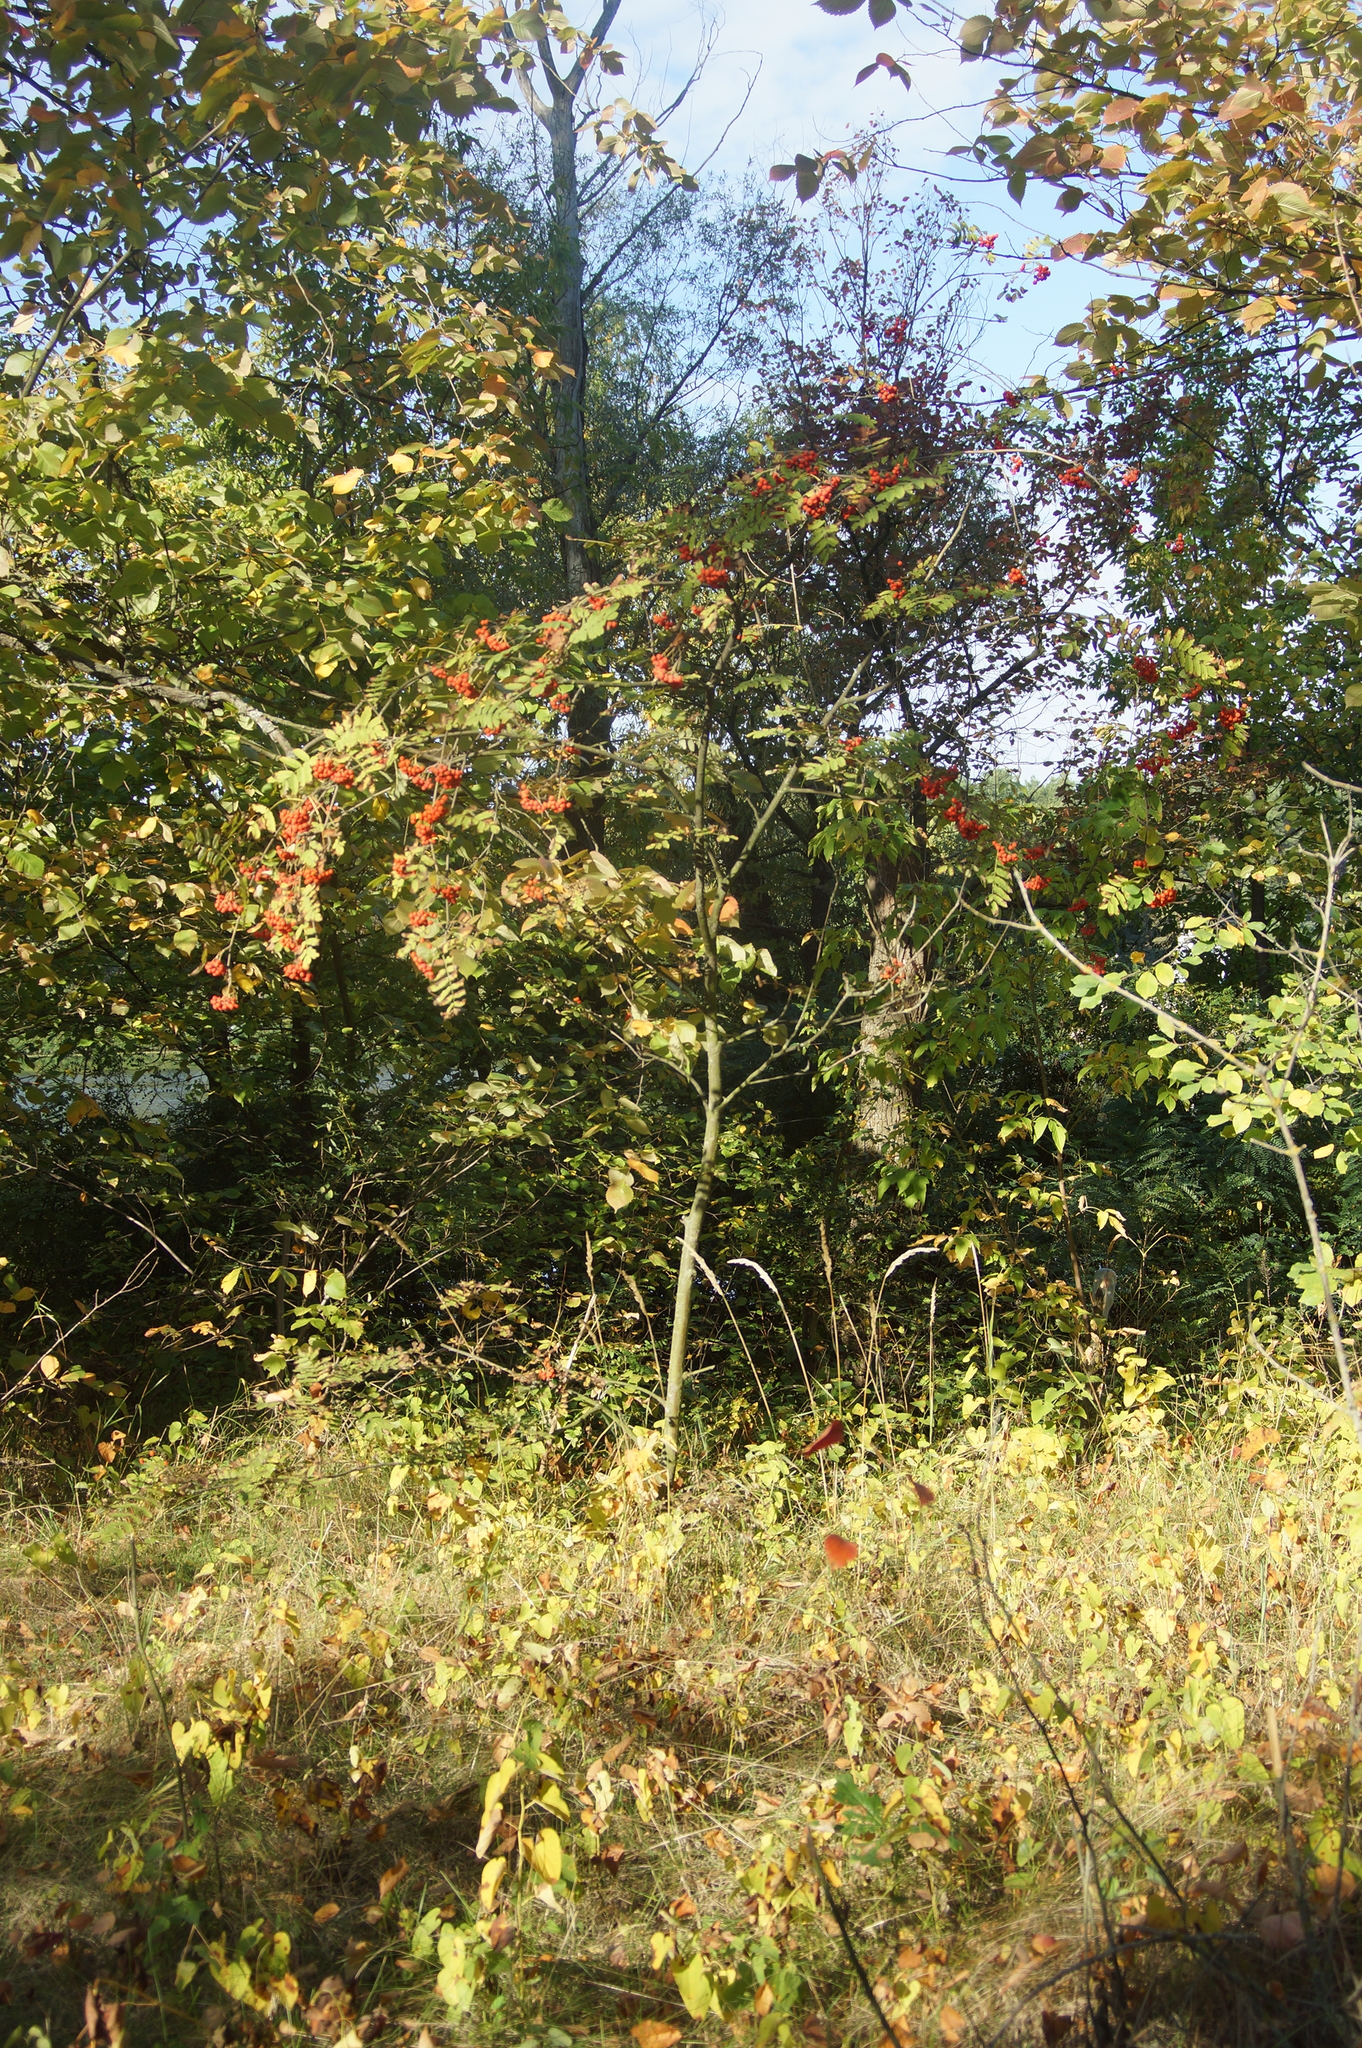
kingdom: Plantae
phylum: Tracheophyta
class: Magnoliopsida
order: Rosales
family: Rosaceae
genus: Sorbus
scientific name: Sorbus aucuparia
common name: Rowan
